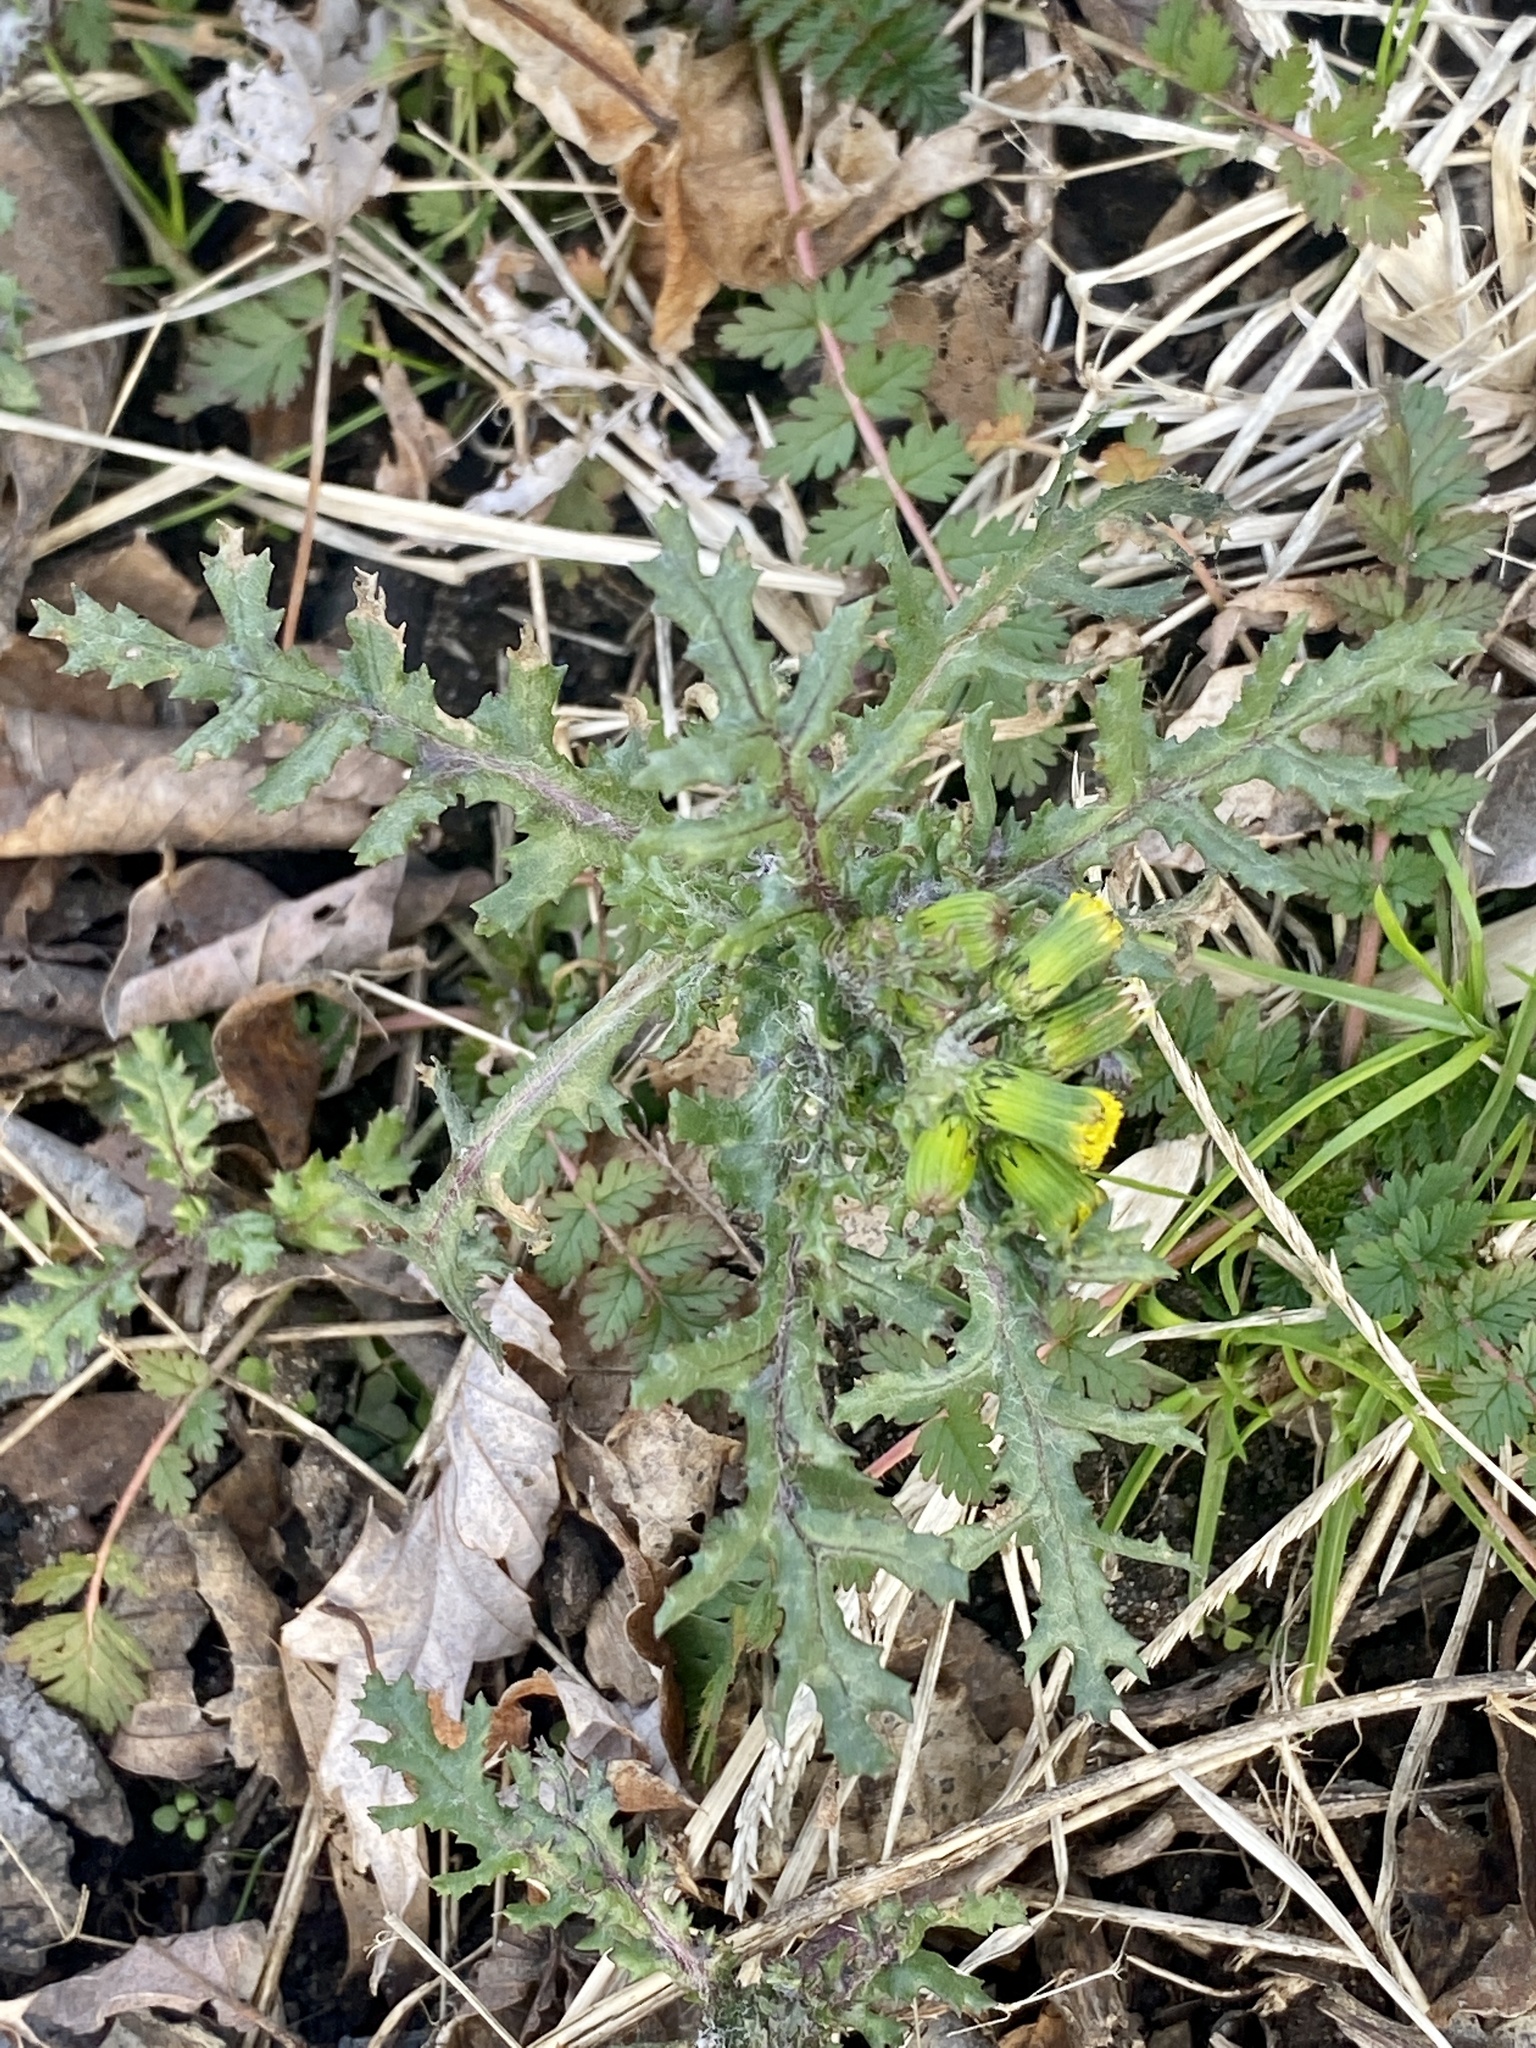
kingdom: Plantae
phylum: Tracheophyta
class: Magnoliopsida
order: Asterales
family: Asteraceae
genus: Senecio
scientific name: Senecio vulgaris
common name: Old-man-in-the-spring
